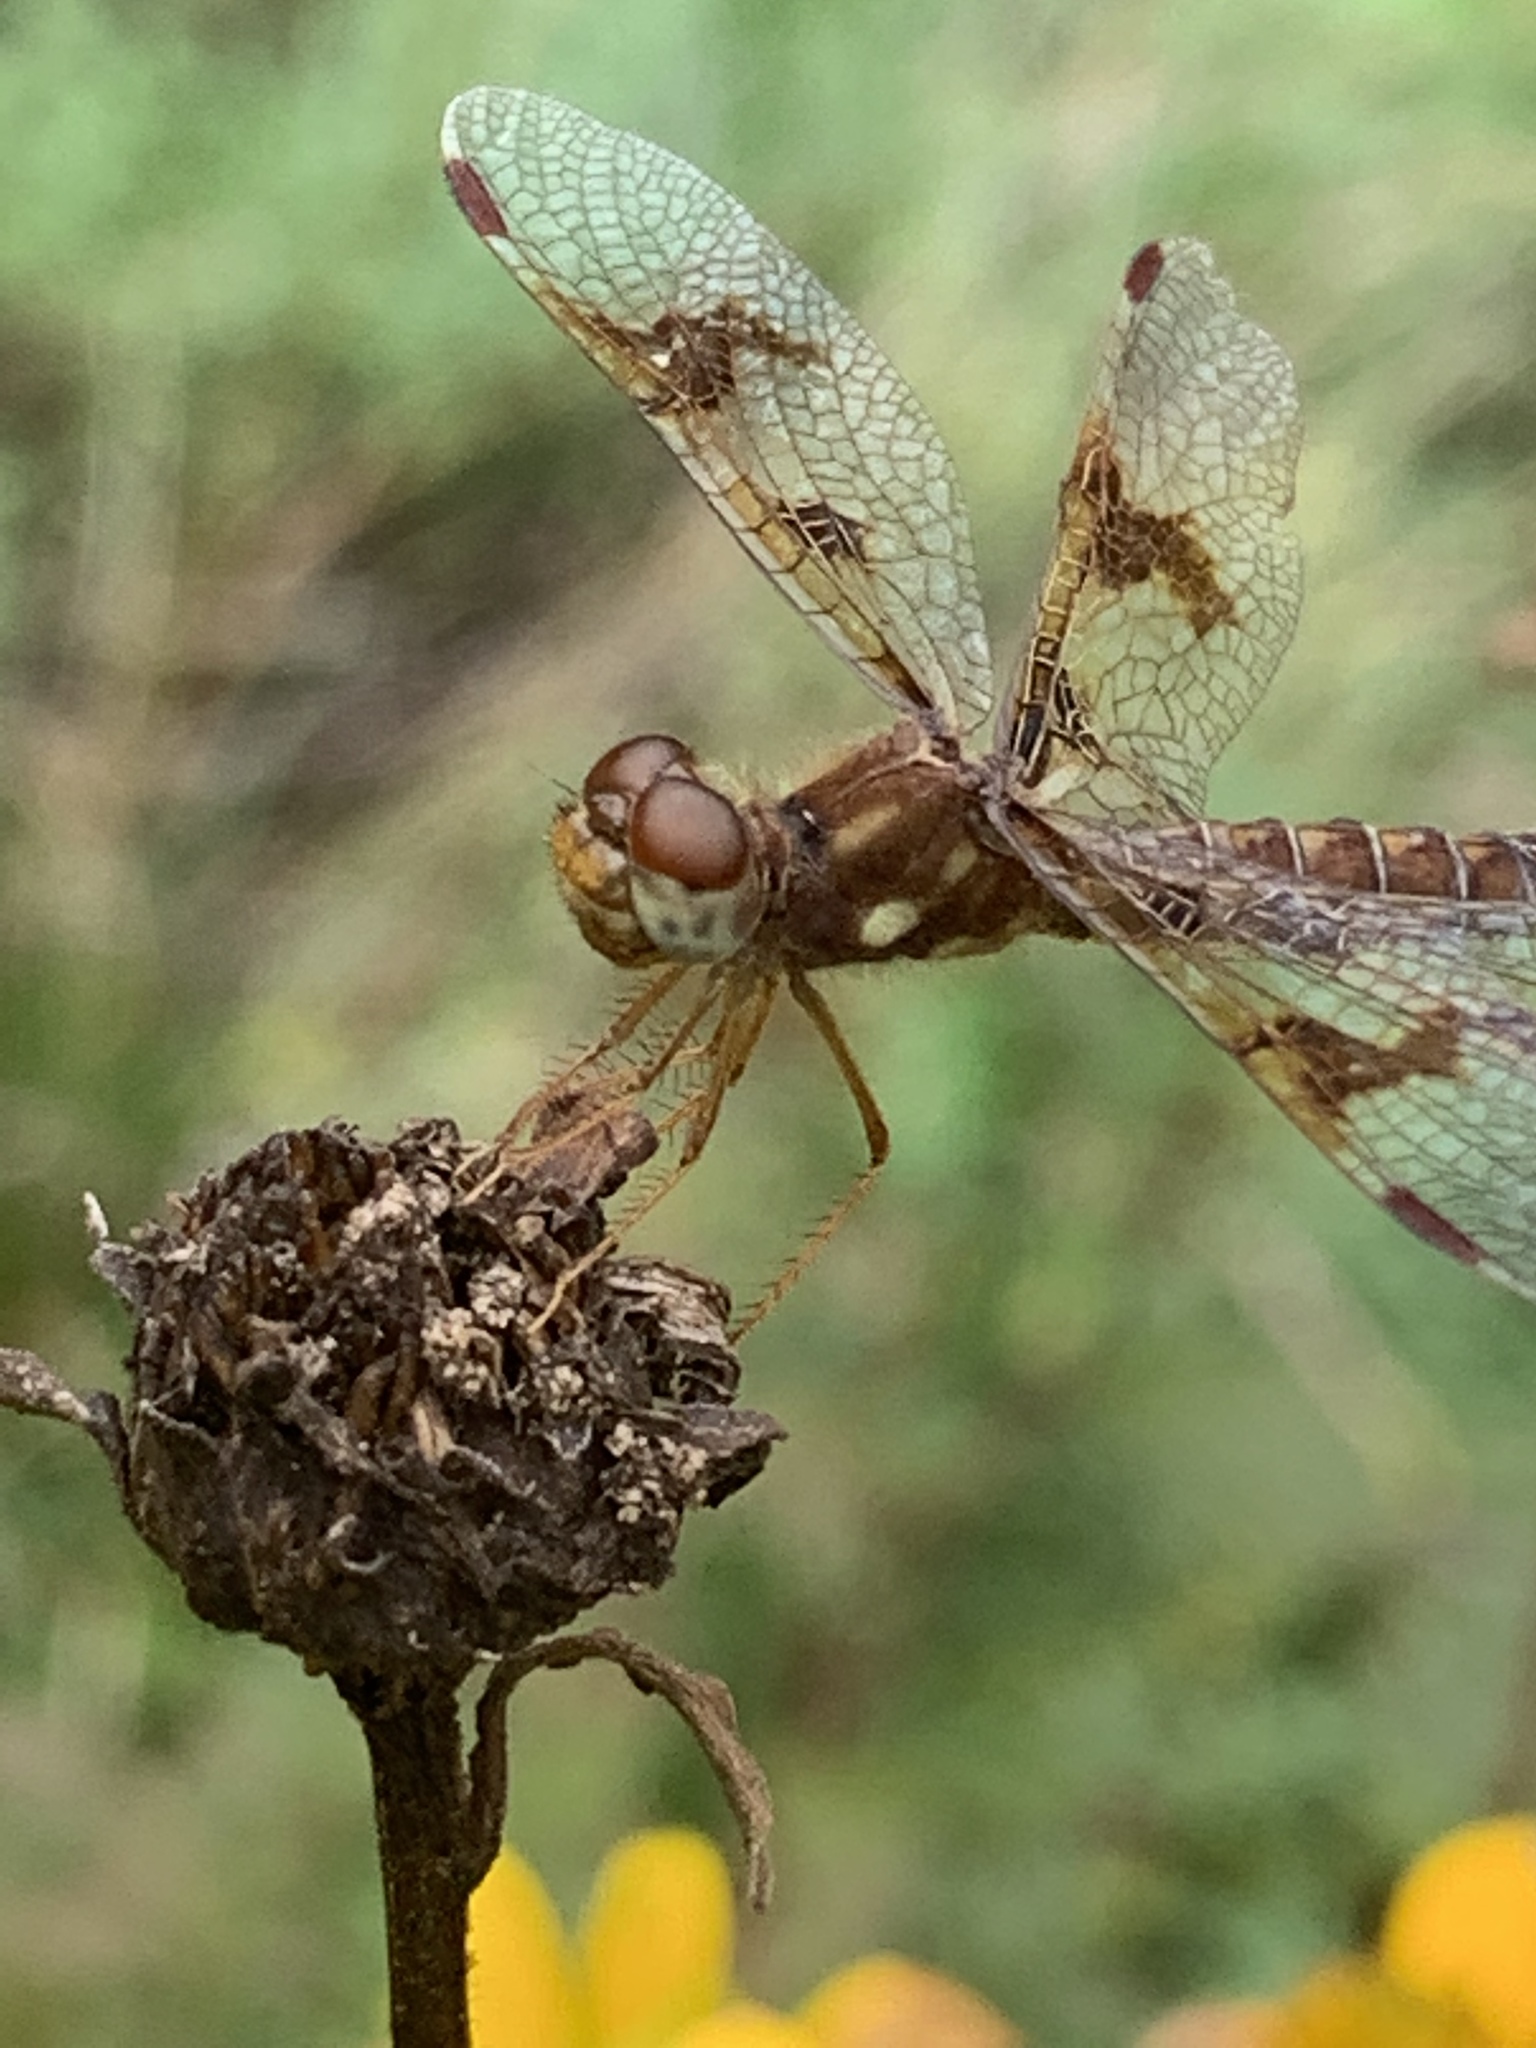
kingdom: Animalia
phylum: Arthropoda
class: Insecta
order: Odonata
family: Libellulidae
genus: Perithemis
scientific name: Perithemis tenera
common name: Eastern amberwing
